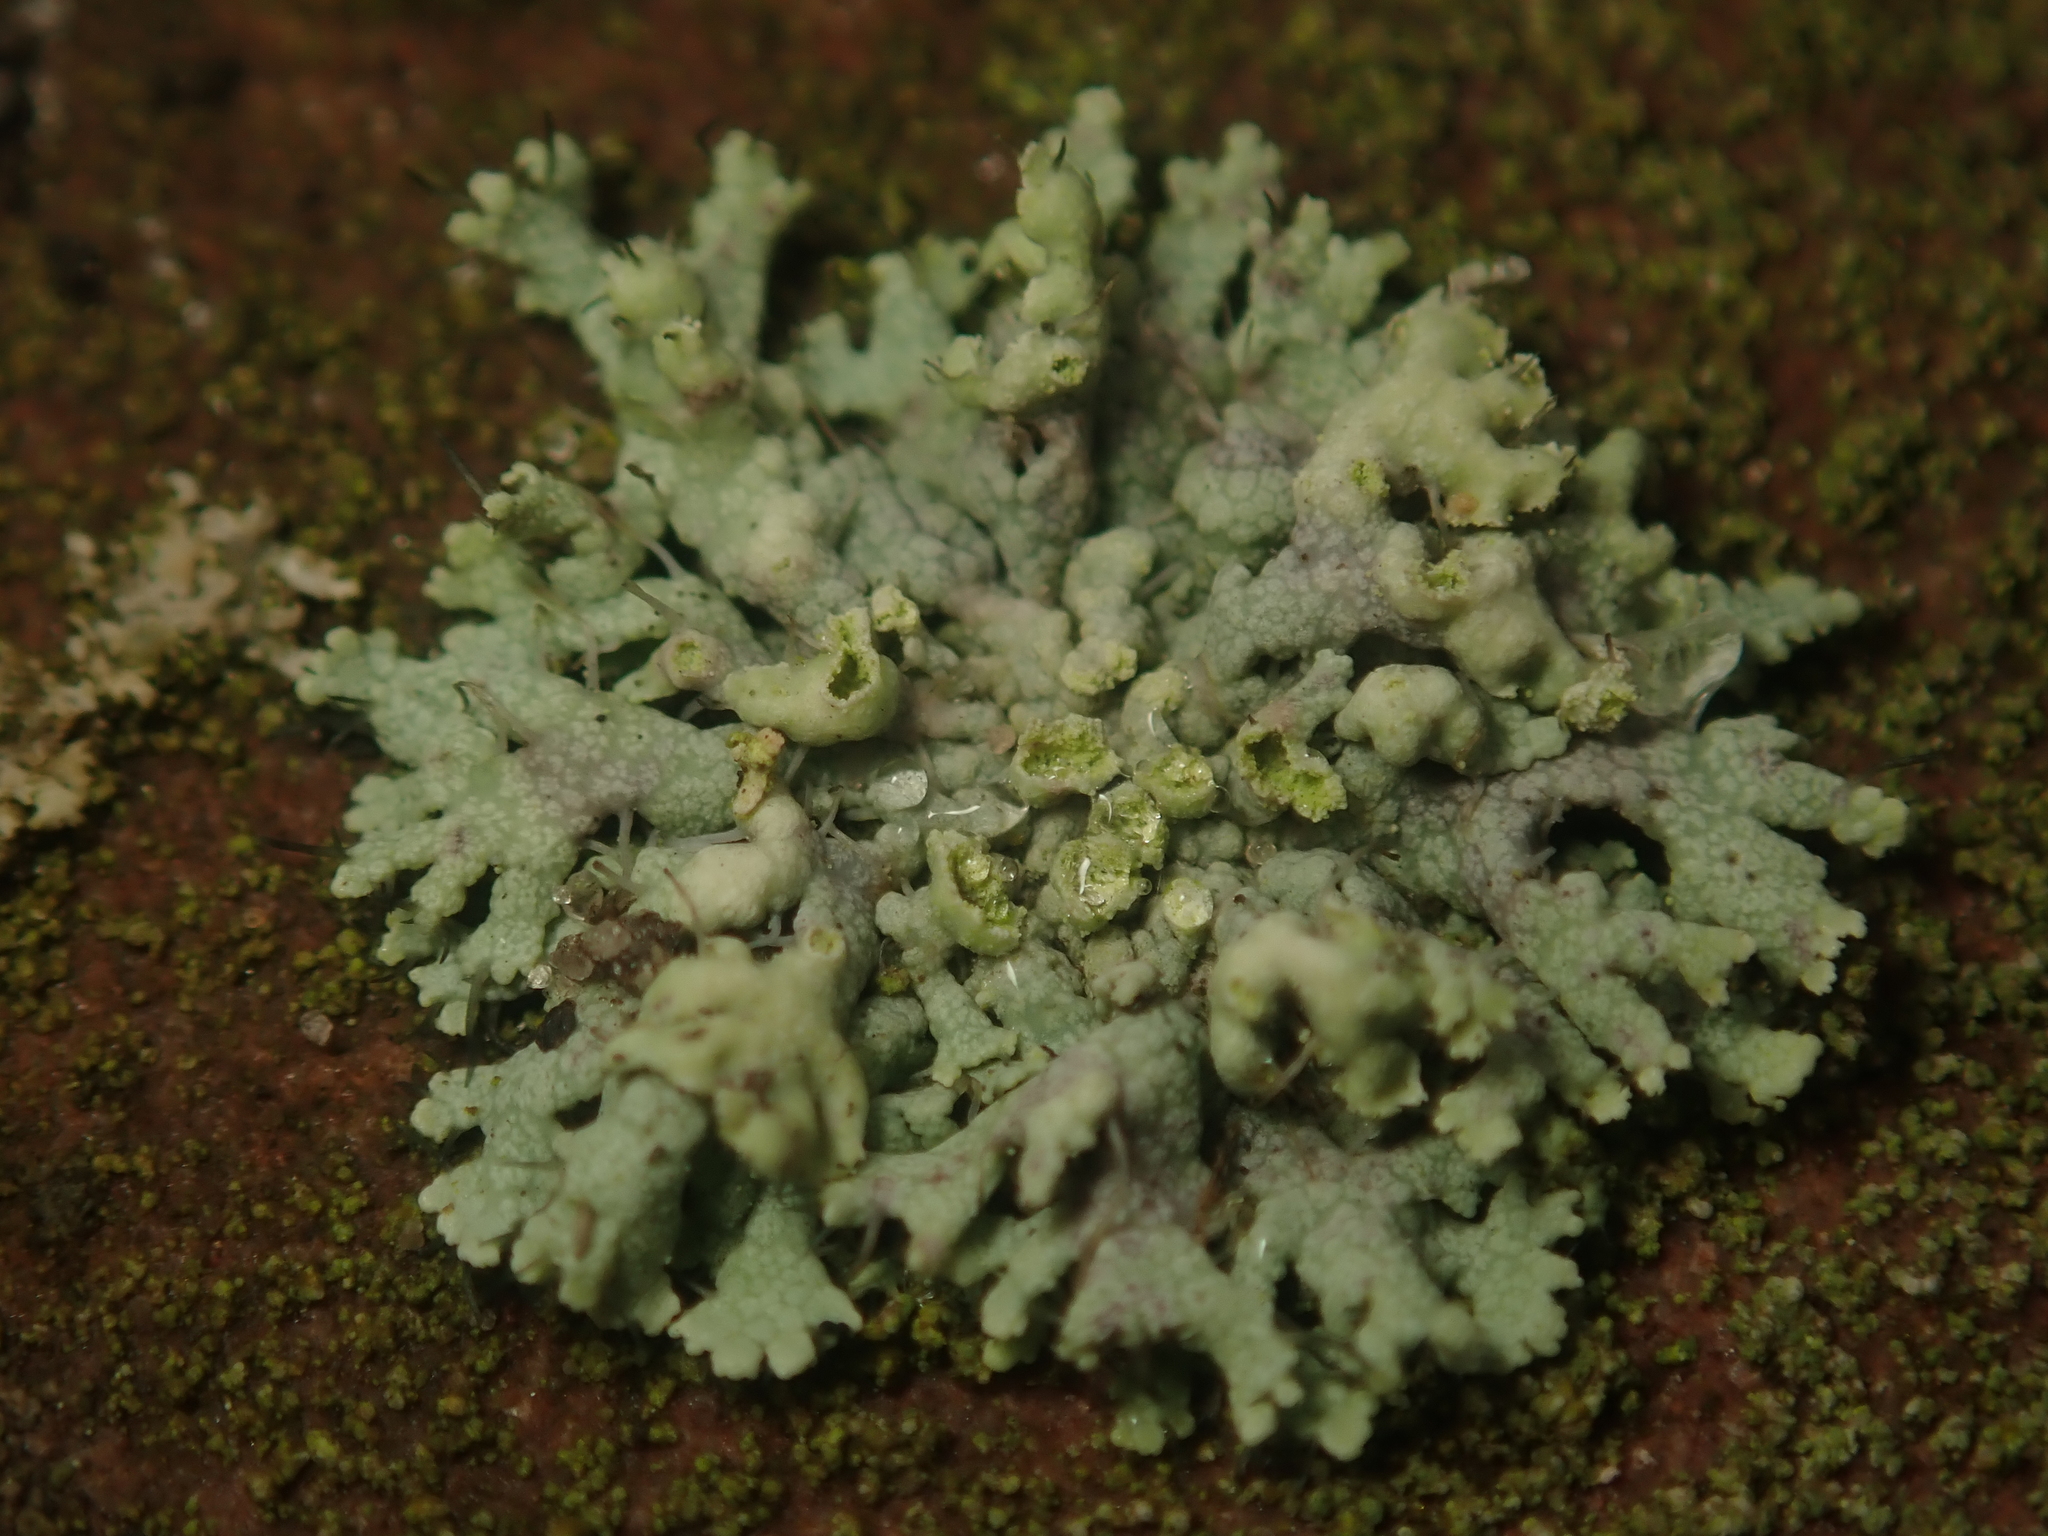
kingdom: Fungi
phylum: Ascomycota
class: Lecanoromycetes
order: Caliciales
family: Physciaceae
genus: Physcia
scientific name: Physcia adscendens
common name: Hooded rosette lichen
